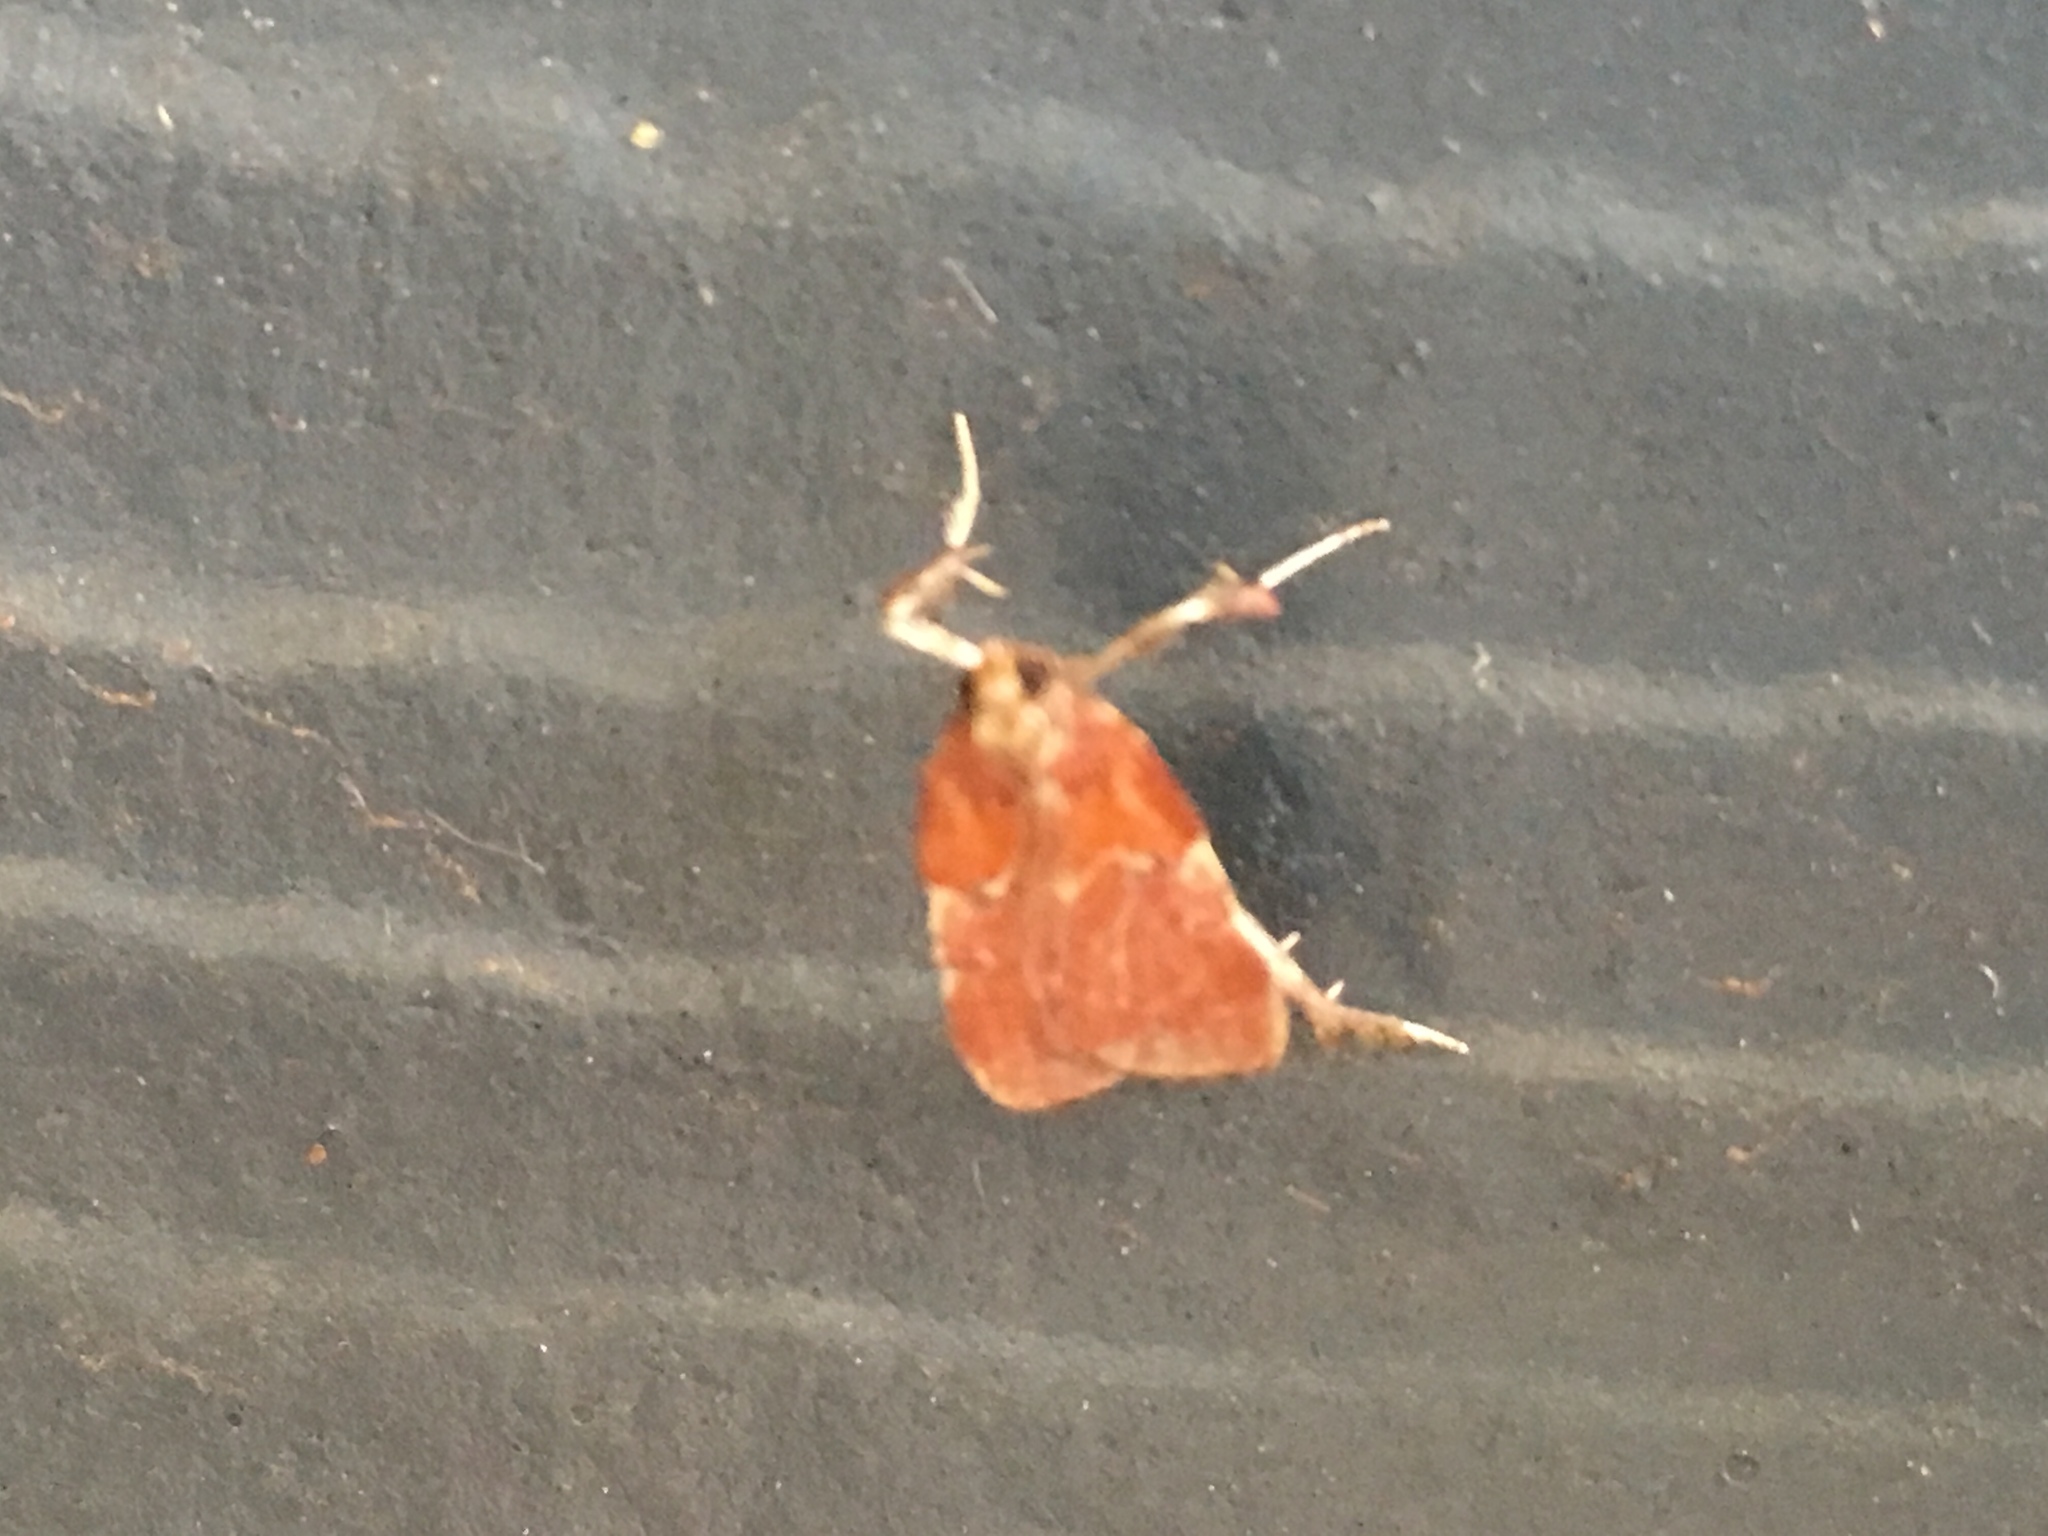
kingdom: Animalia
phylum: Arthropoda
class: Insecta
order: Lepidoptera
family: Pyralidae
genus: Galasa
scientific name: Galasa nigrinodis
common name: Boxwood leaftier moth
